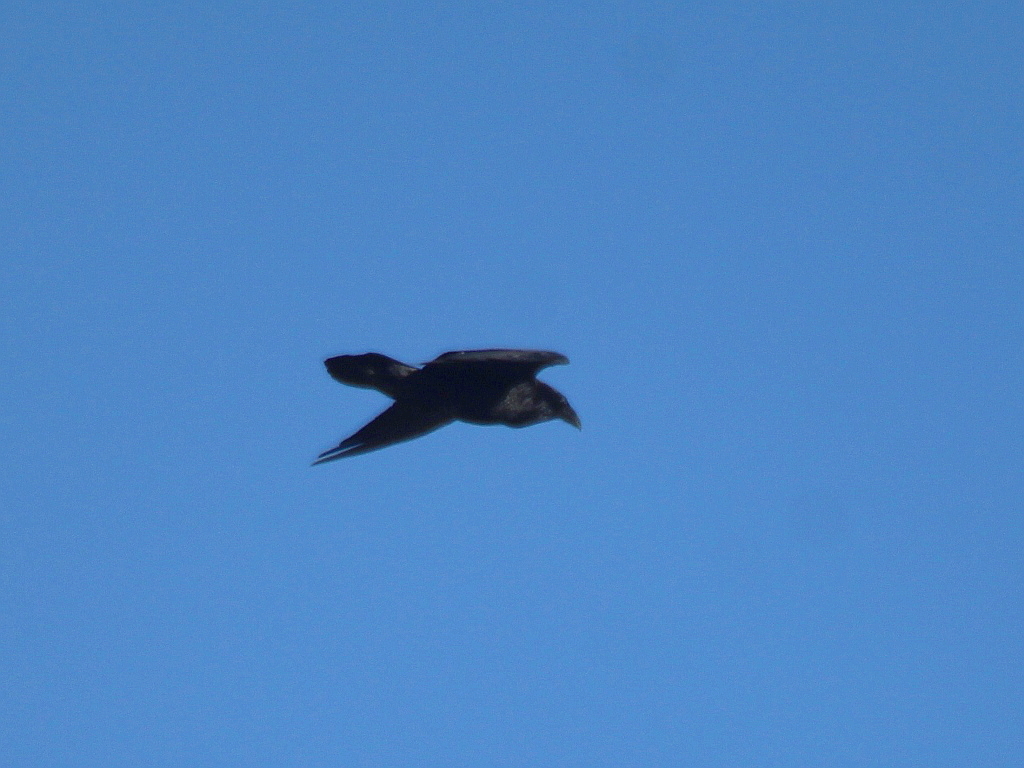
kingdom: Animalia
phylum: Chordata
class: Aves
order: Passeriformes
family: Corvidae
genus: Corvus
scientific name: Corvus corax
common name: Common raven
